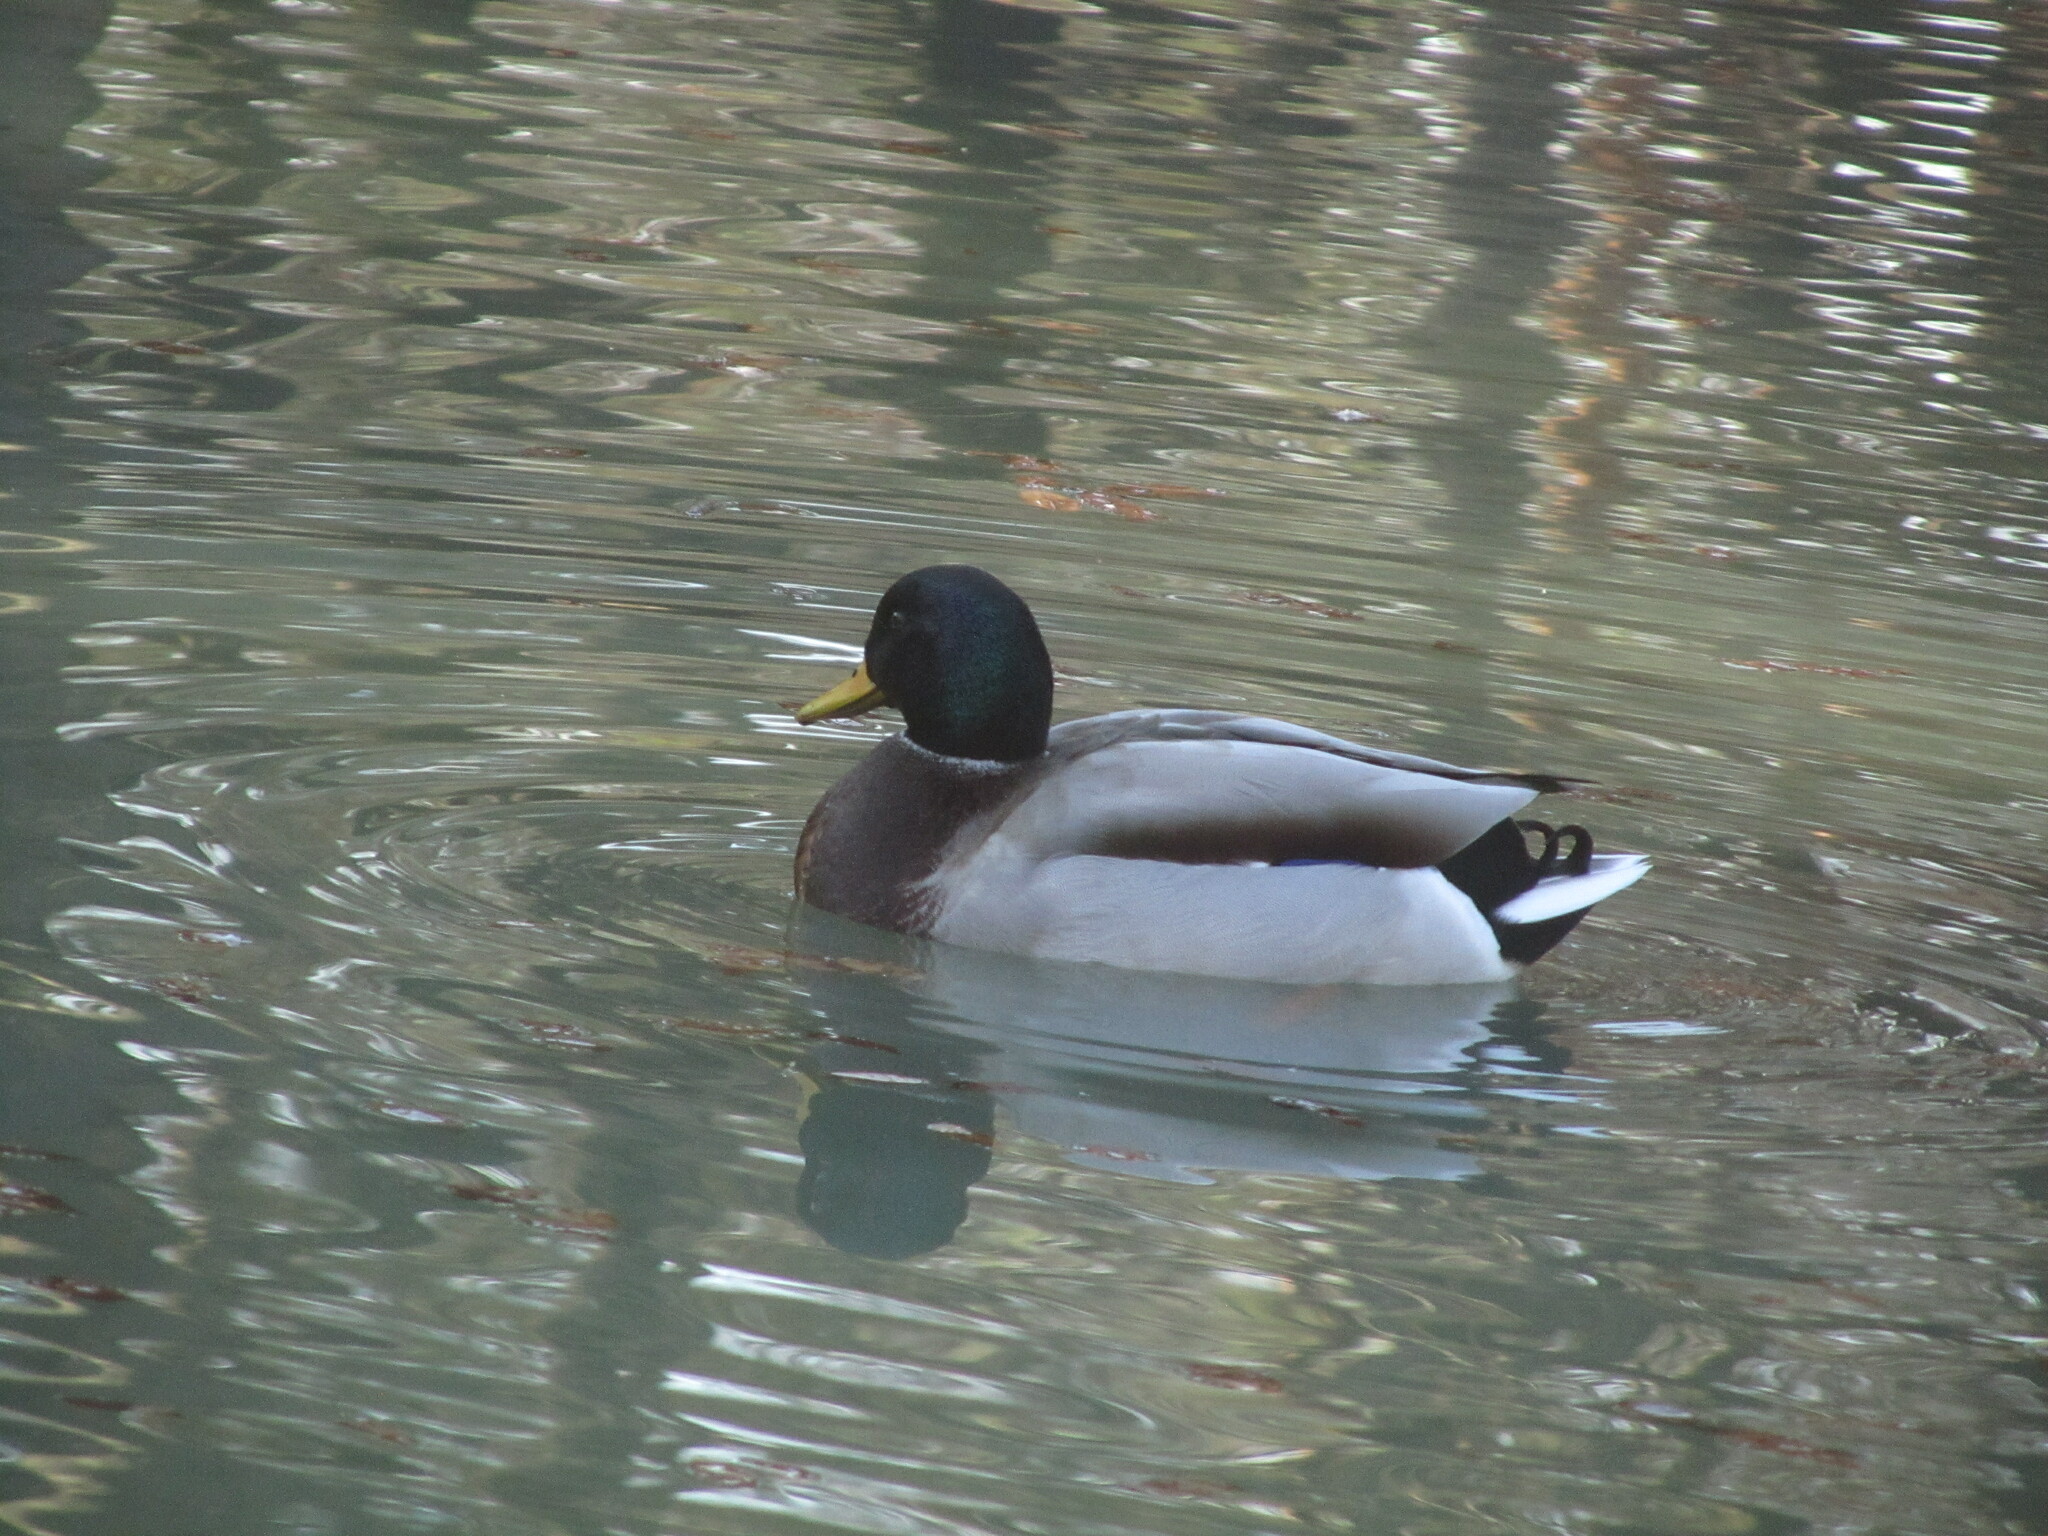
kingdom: Animalia
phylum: Chordata
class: Aves
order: Anseriformes
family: Anatidae
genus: Anas
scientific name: Anas platyrhynchos
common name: Mallard
